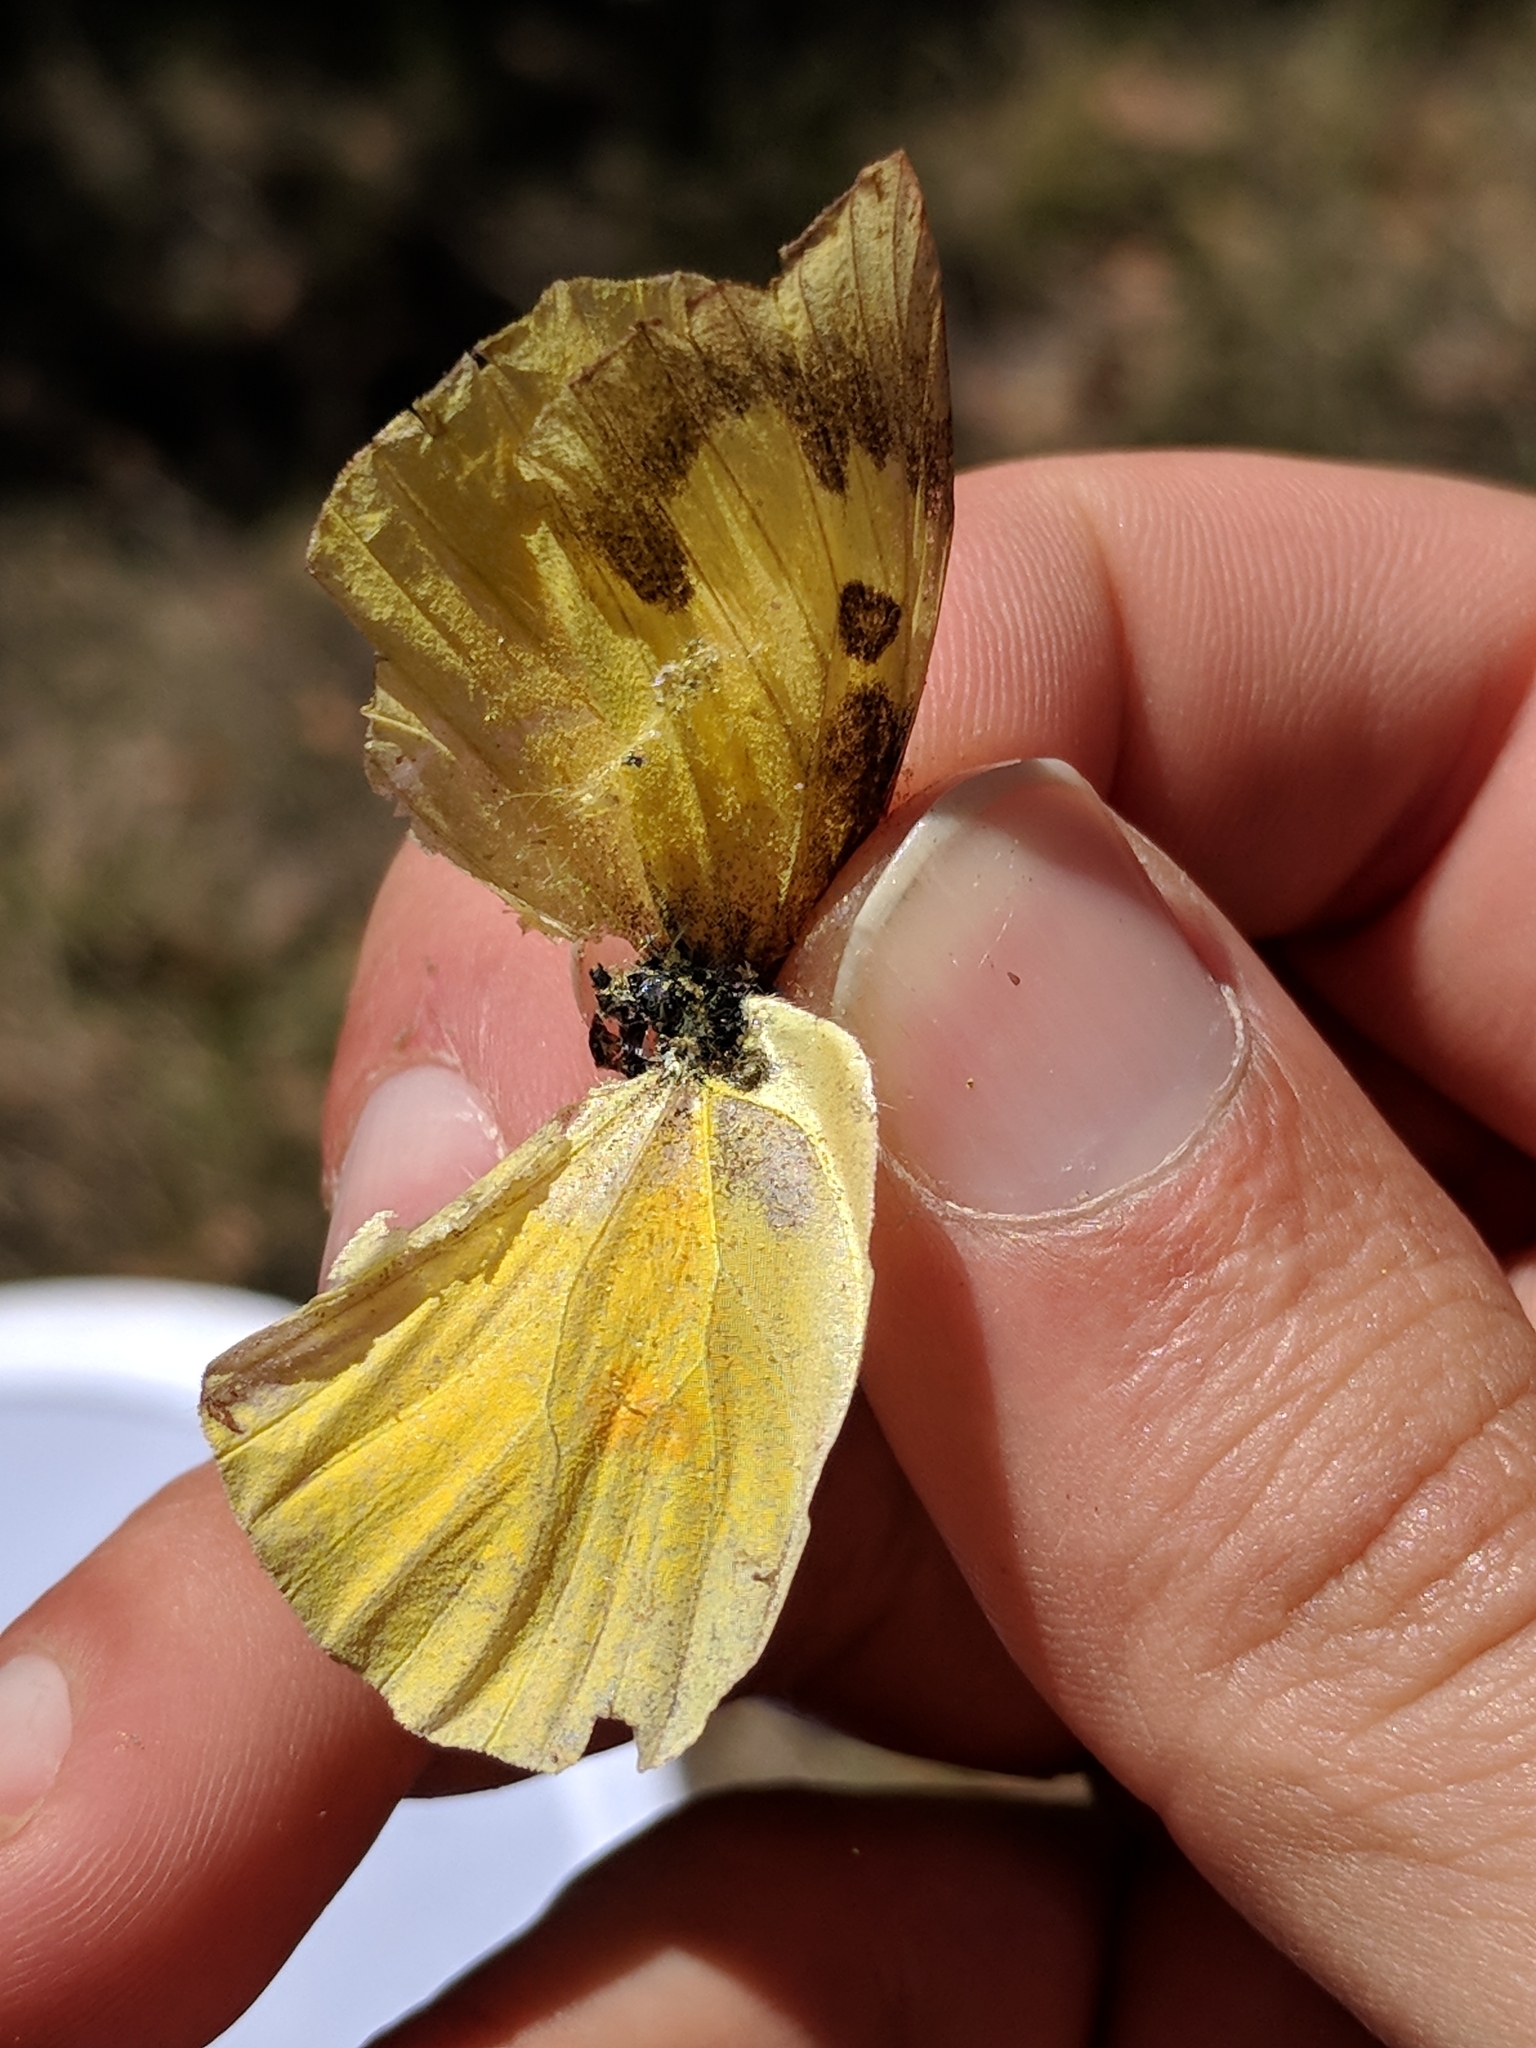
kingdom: Animalia
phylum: Arthropoda
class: Insecta
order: Lepidoptera
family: Pieridae
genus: Zerene
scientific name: Zerene cesonia
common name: Southern dogface
